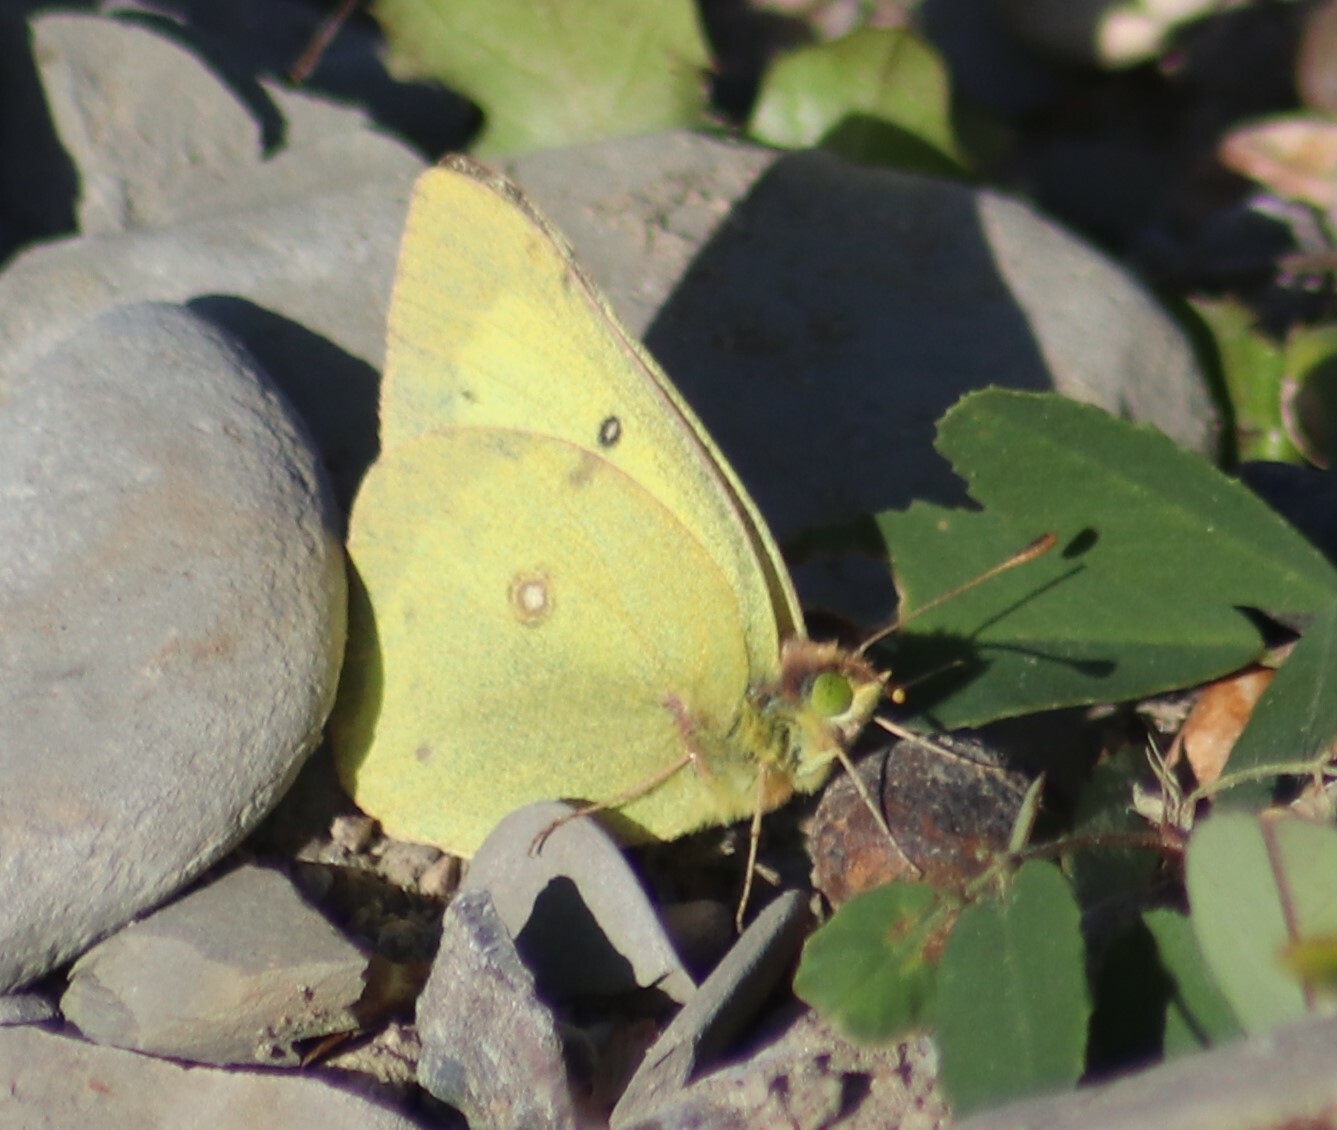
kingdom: Animalia
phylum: Arthropoda
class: Insecta
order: Lepidoptera
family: Pieridae
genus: Colias
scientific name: Colias philodice
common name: Clouded sulphur
